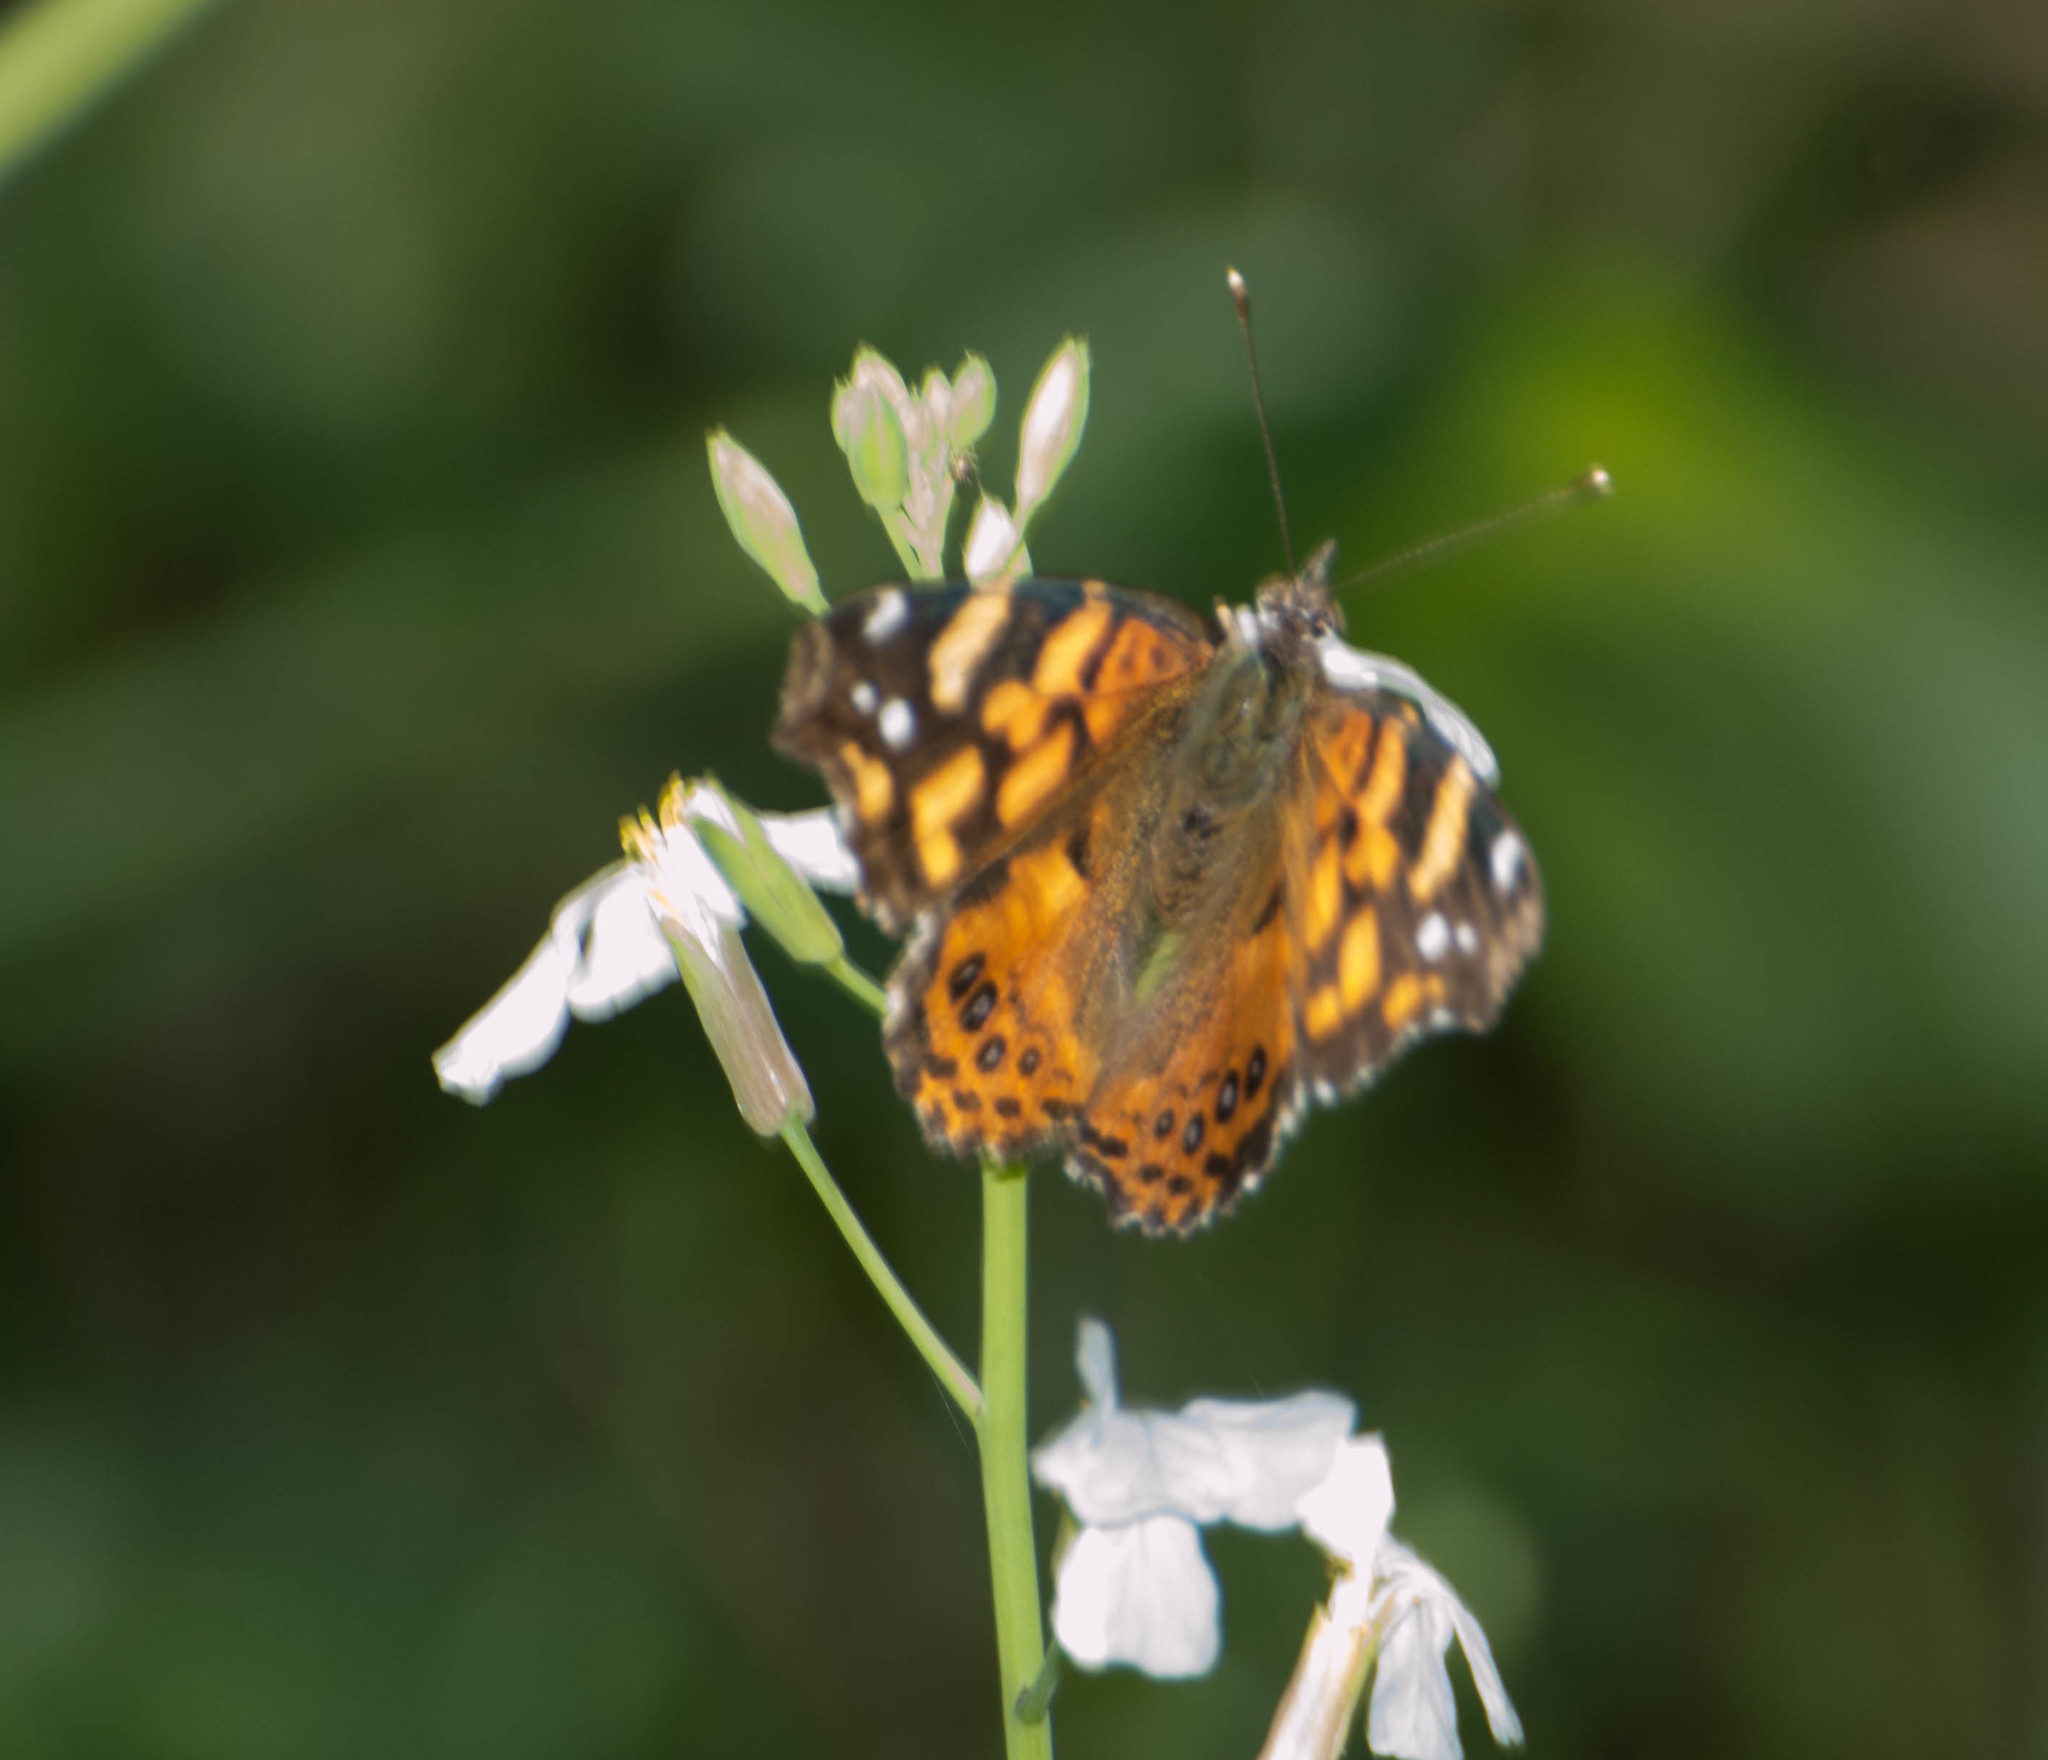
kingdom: Animalia
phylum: Arthropoda
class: Insecta
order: Lepidoptera
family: Nymphalidae
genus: Vanessa
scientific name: Vanessa carye
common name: Subtropical lady
